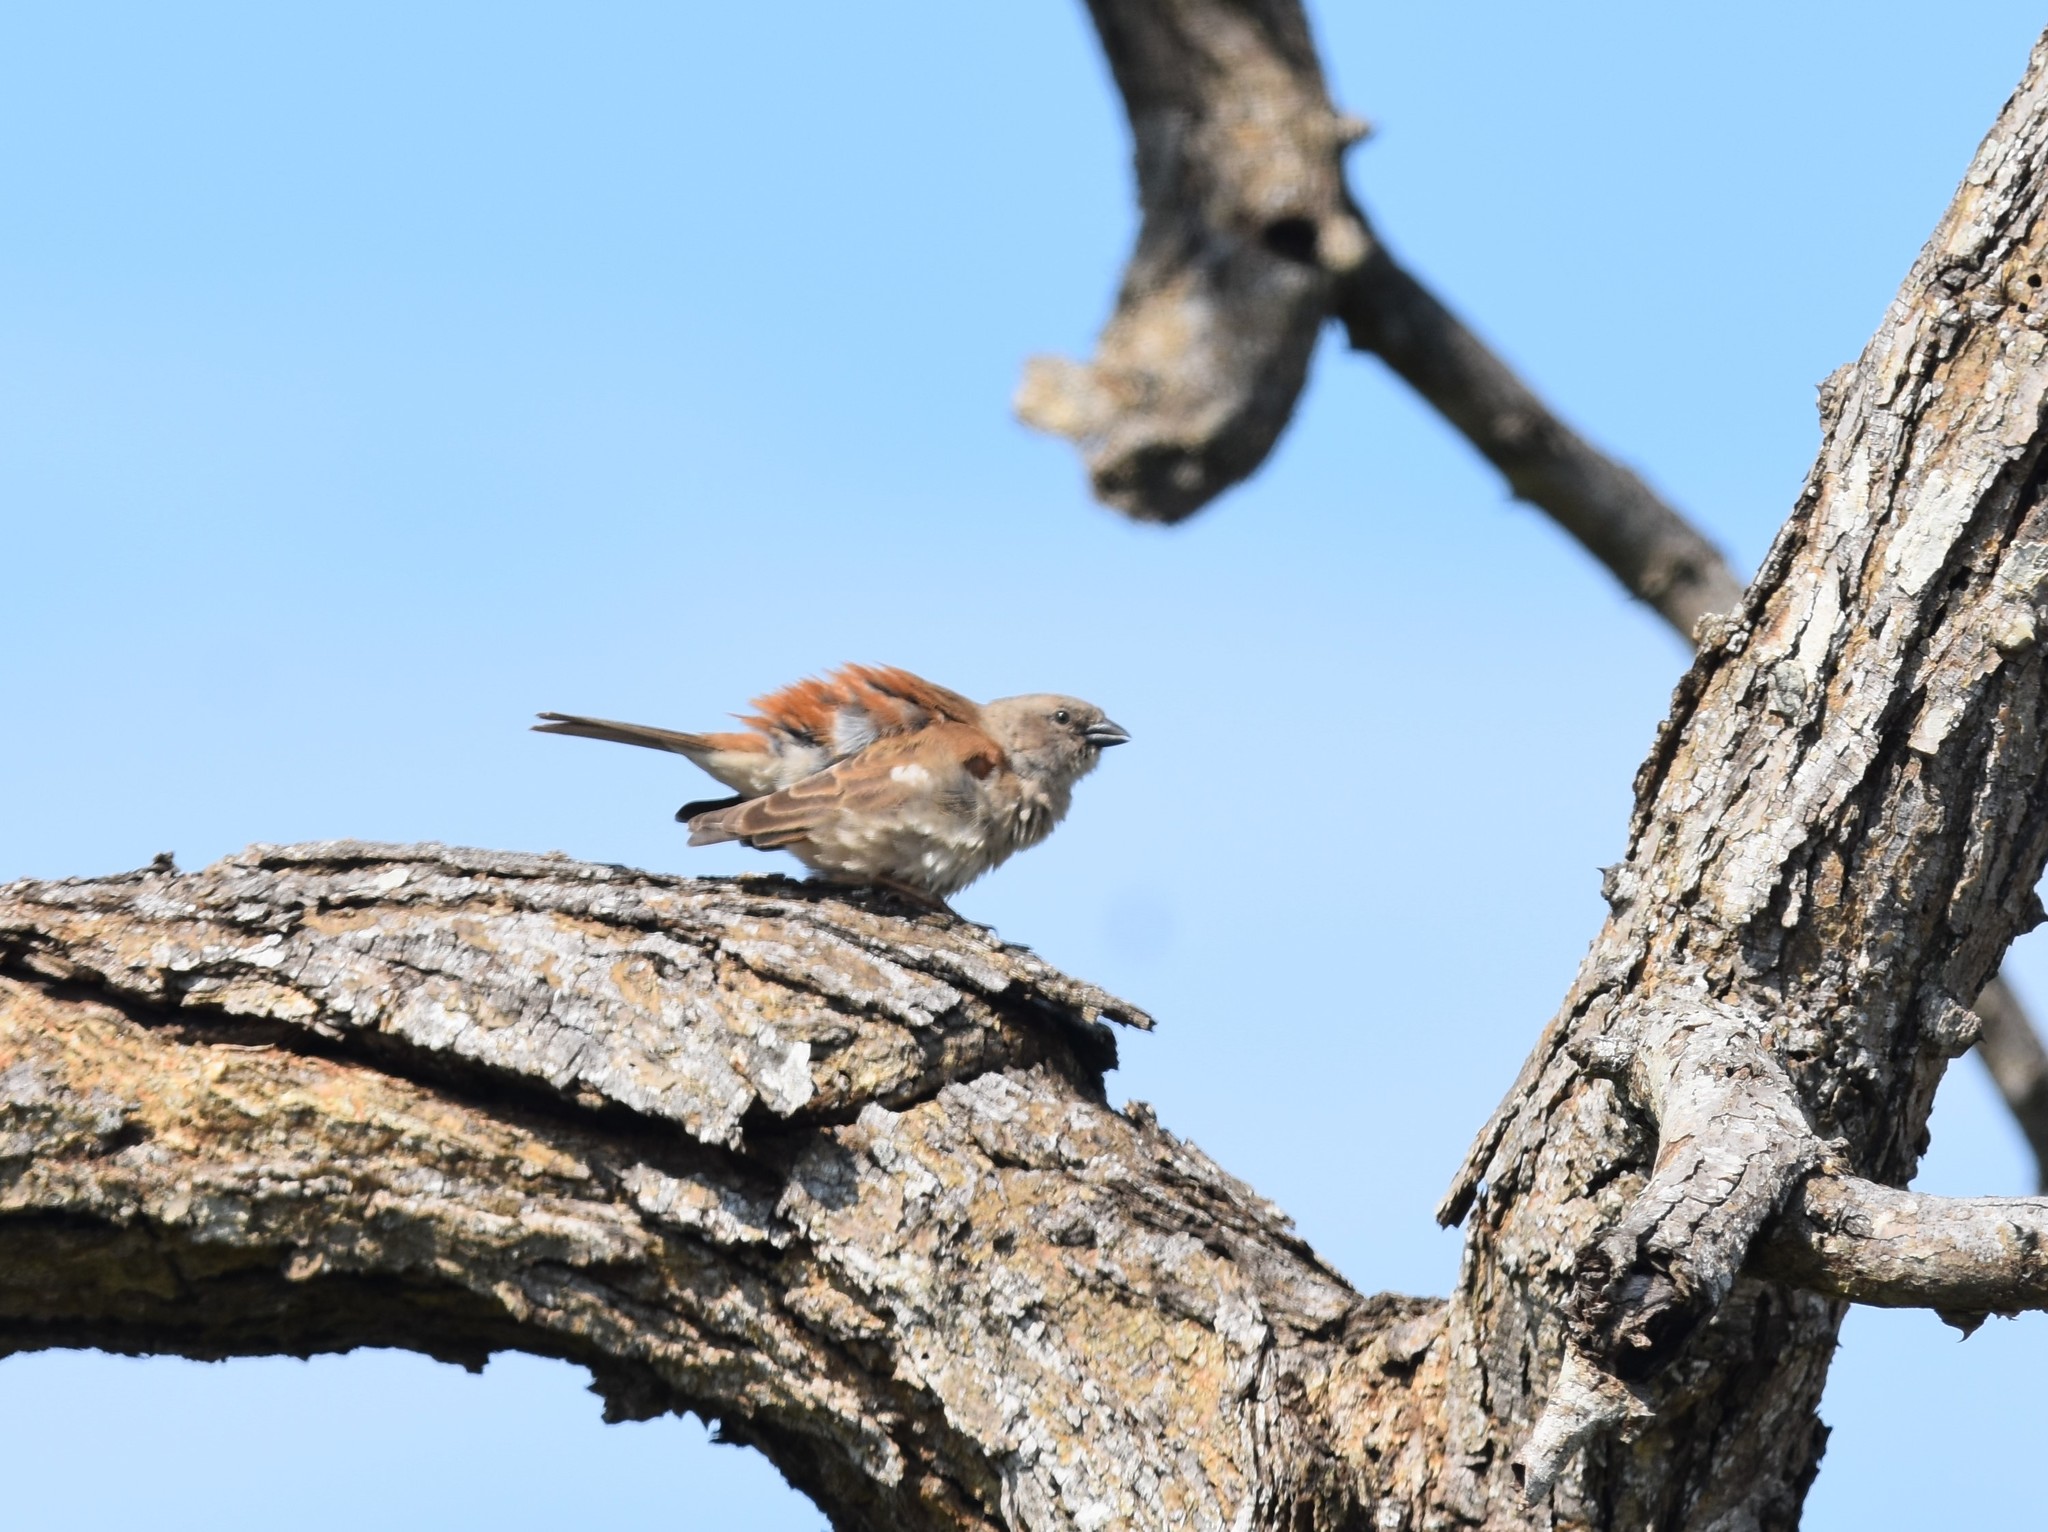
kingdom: Animalia
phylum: Chordata
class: Aves
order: Passeriformes
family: Passeridae
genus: Passer
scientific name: Passer diffusus
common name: Southern grey-headed sparrow
